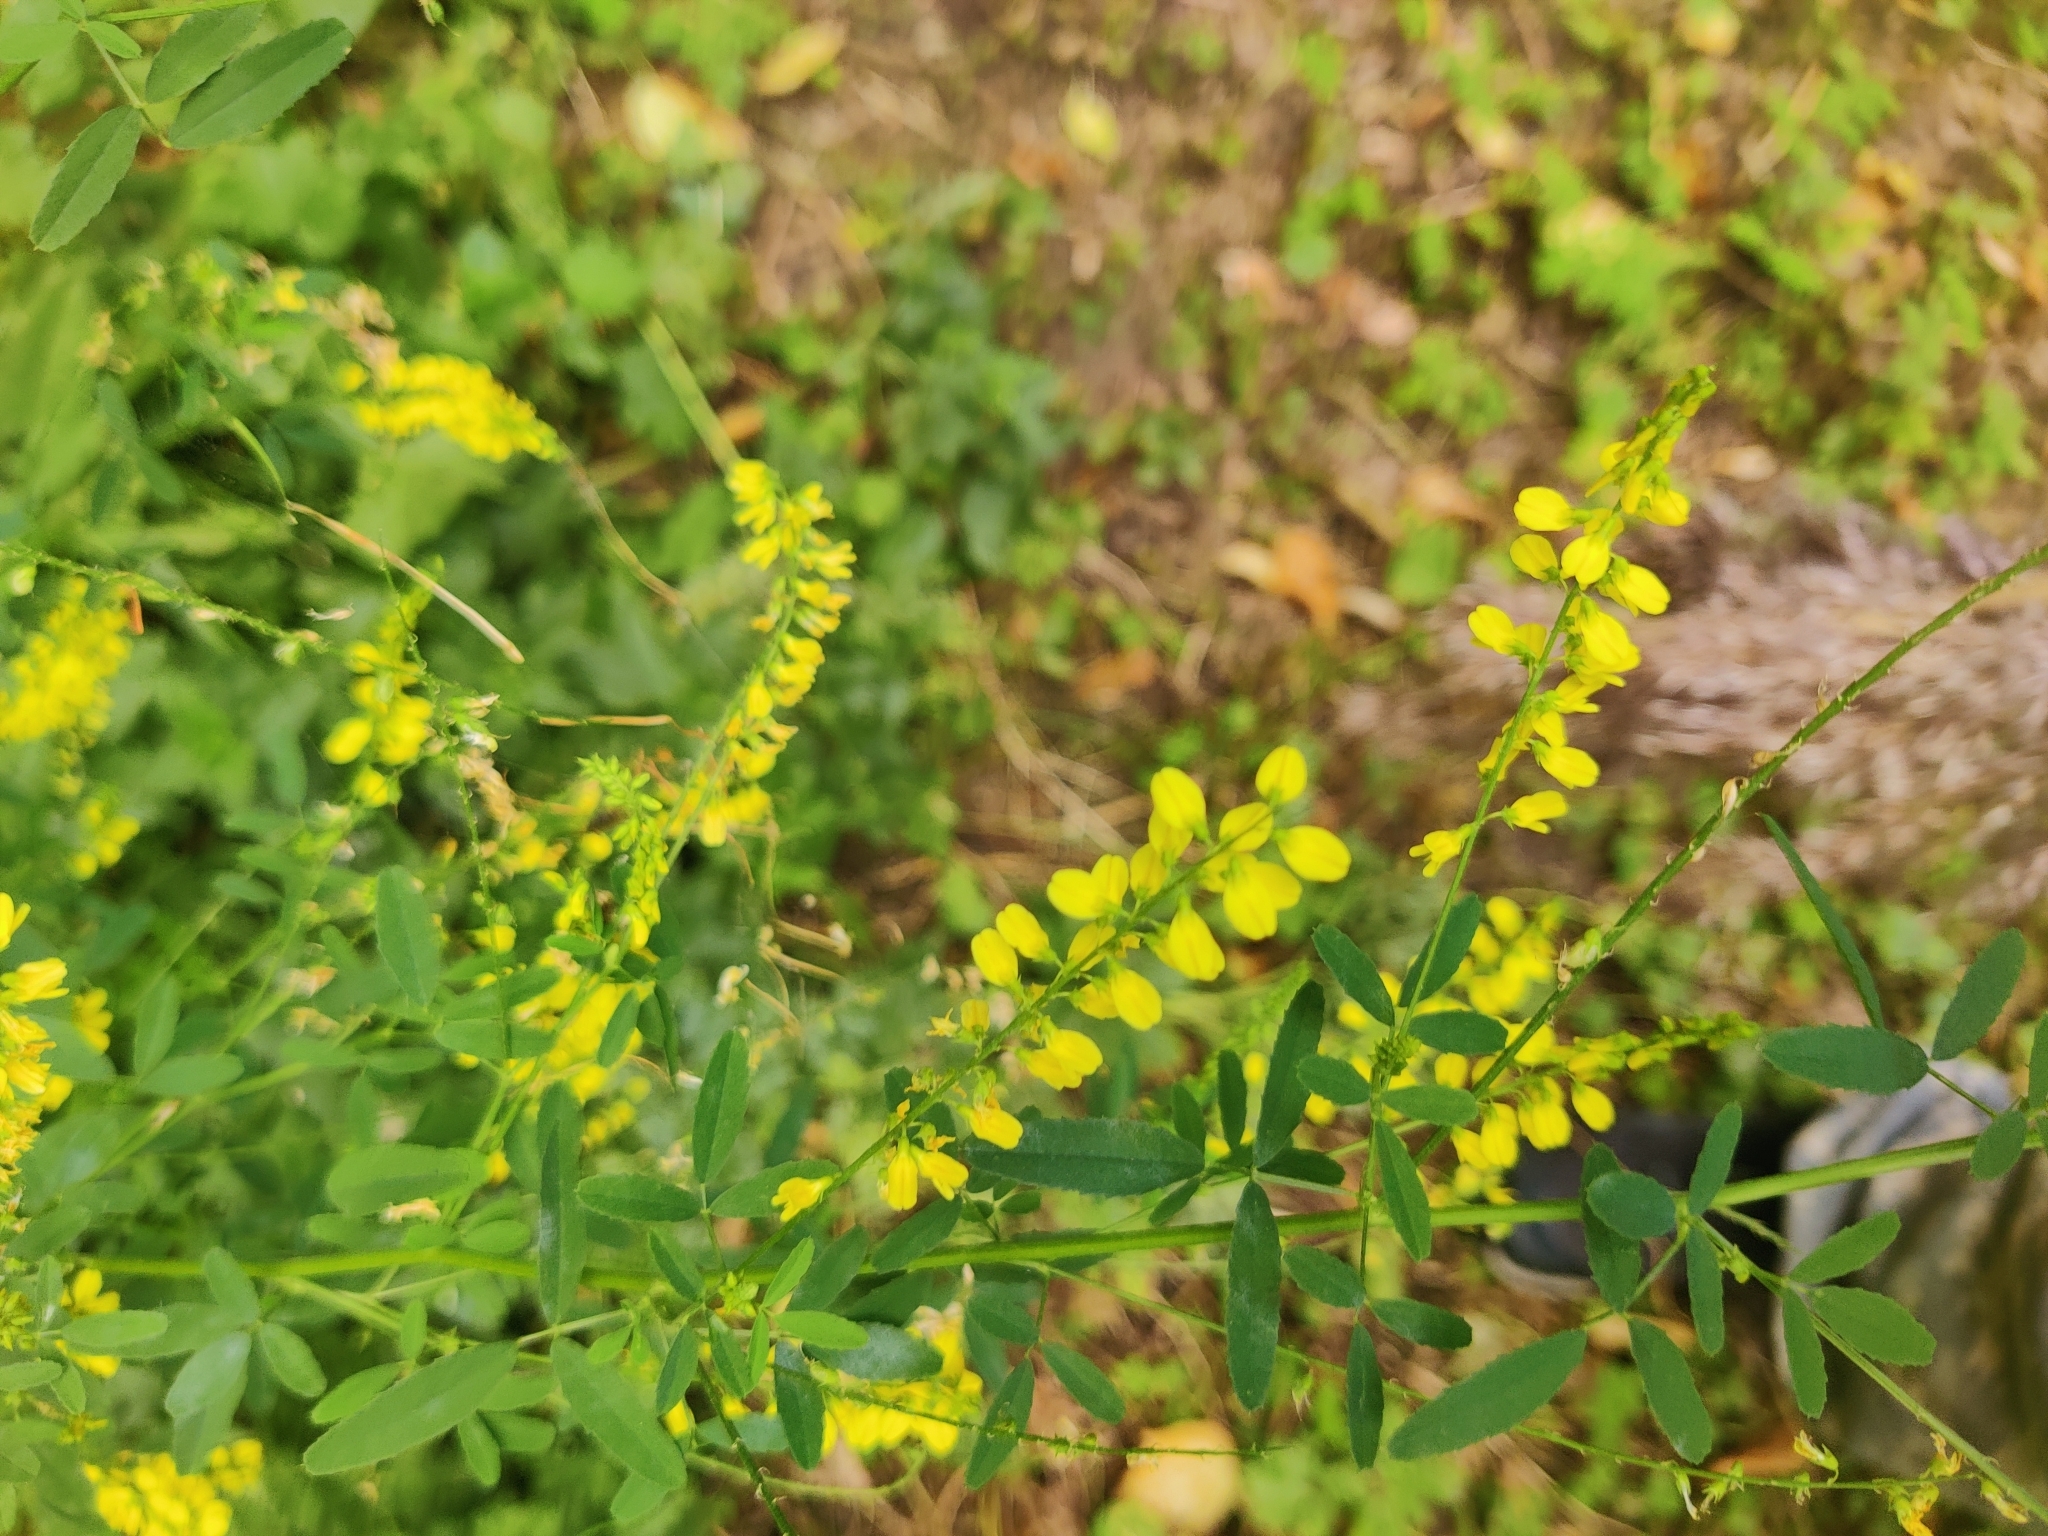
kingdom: Plantae
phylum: Tracheophyta
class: Magnoliopsida
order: Fabales
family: Fabaceae
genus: Melilotus
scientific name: Melilotus officinalis
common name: Sweetclover
